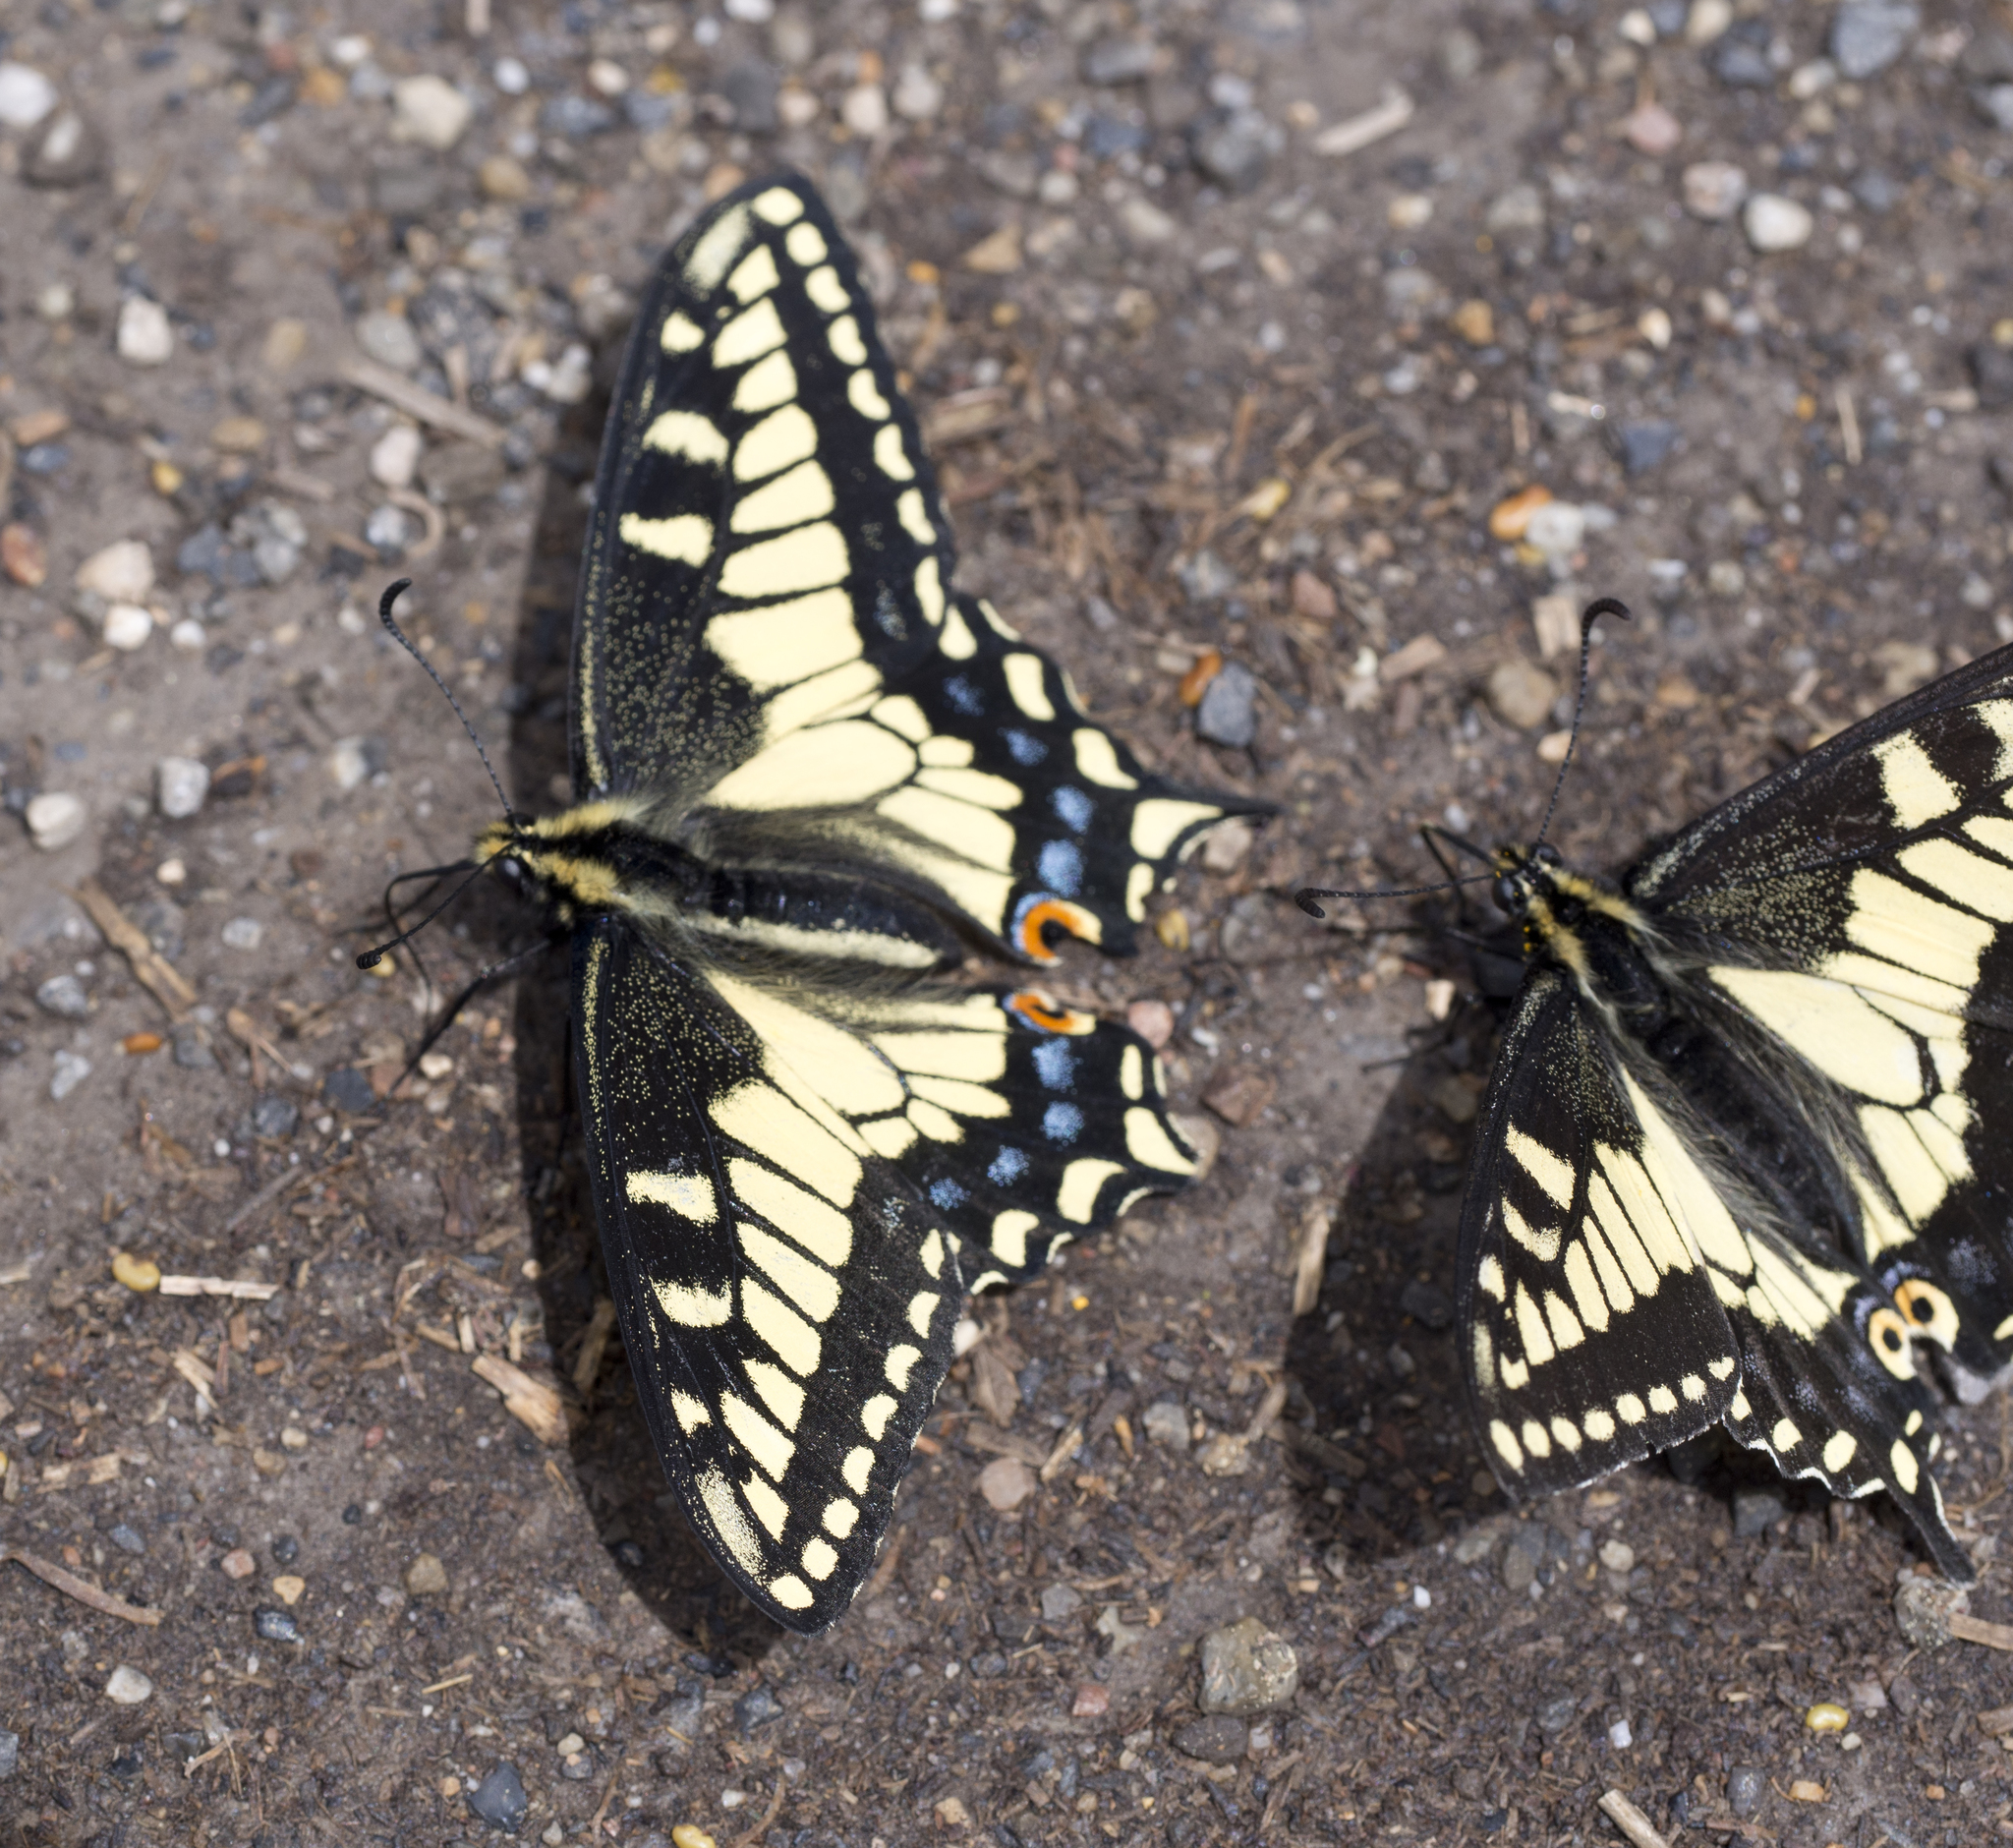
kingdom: Animalia
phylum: Arthropoda
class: Insecta
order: Lepidoptera
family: Papilionidae
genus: Papilio
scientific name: Papilio zelicaon
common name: Anise swallowtail
